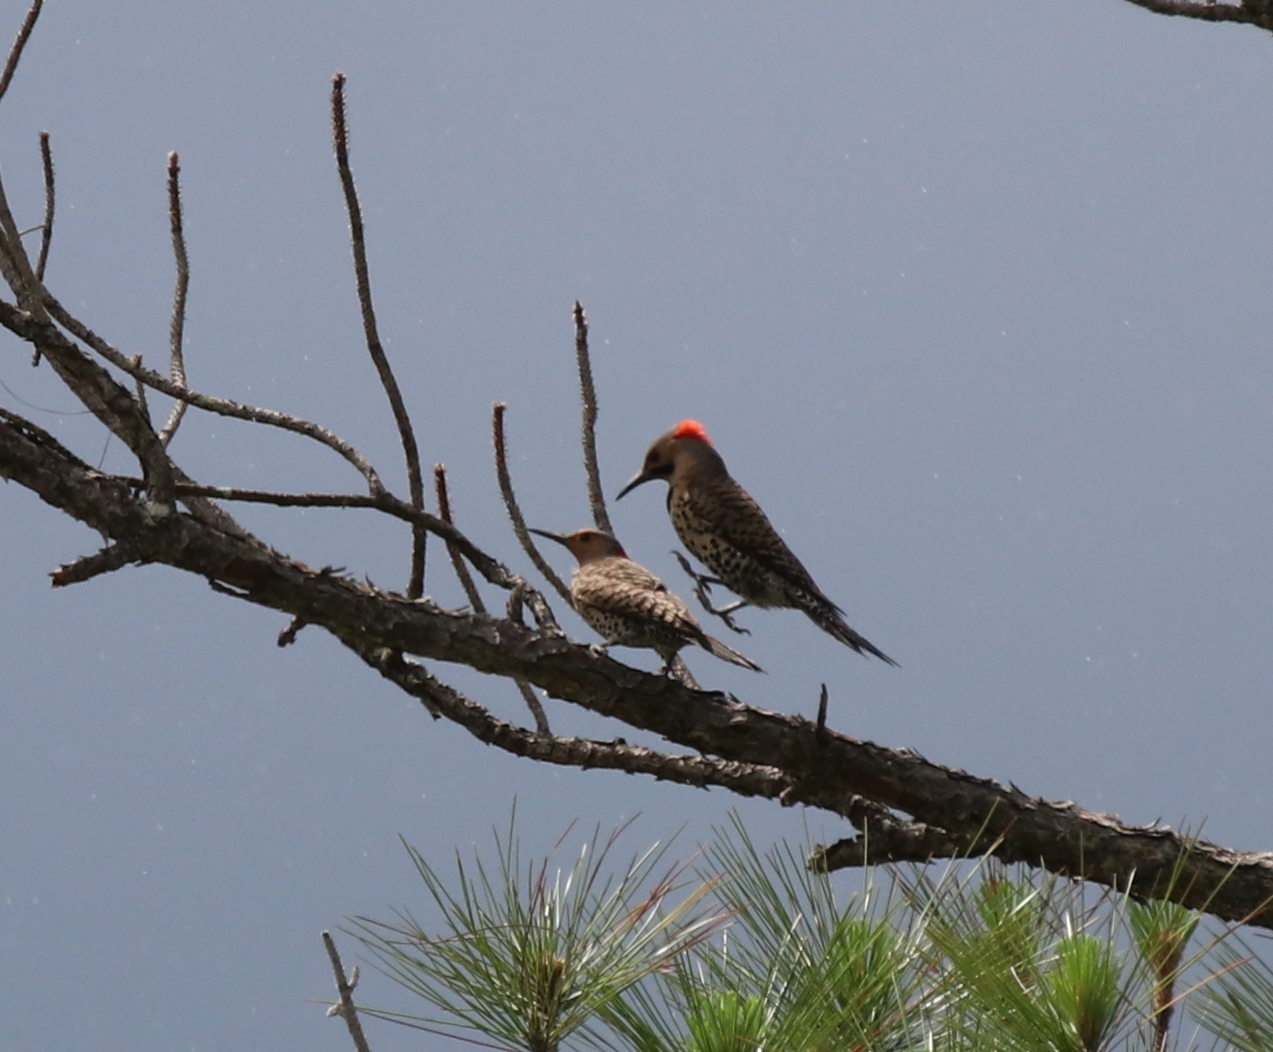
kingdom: Animalia
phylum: Chordata
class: Aves
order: Piciformes
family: Picidae
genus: Colaptes
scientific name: Colaptes auratus
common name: Northern flicker
